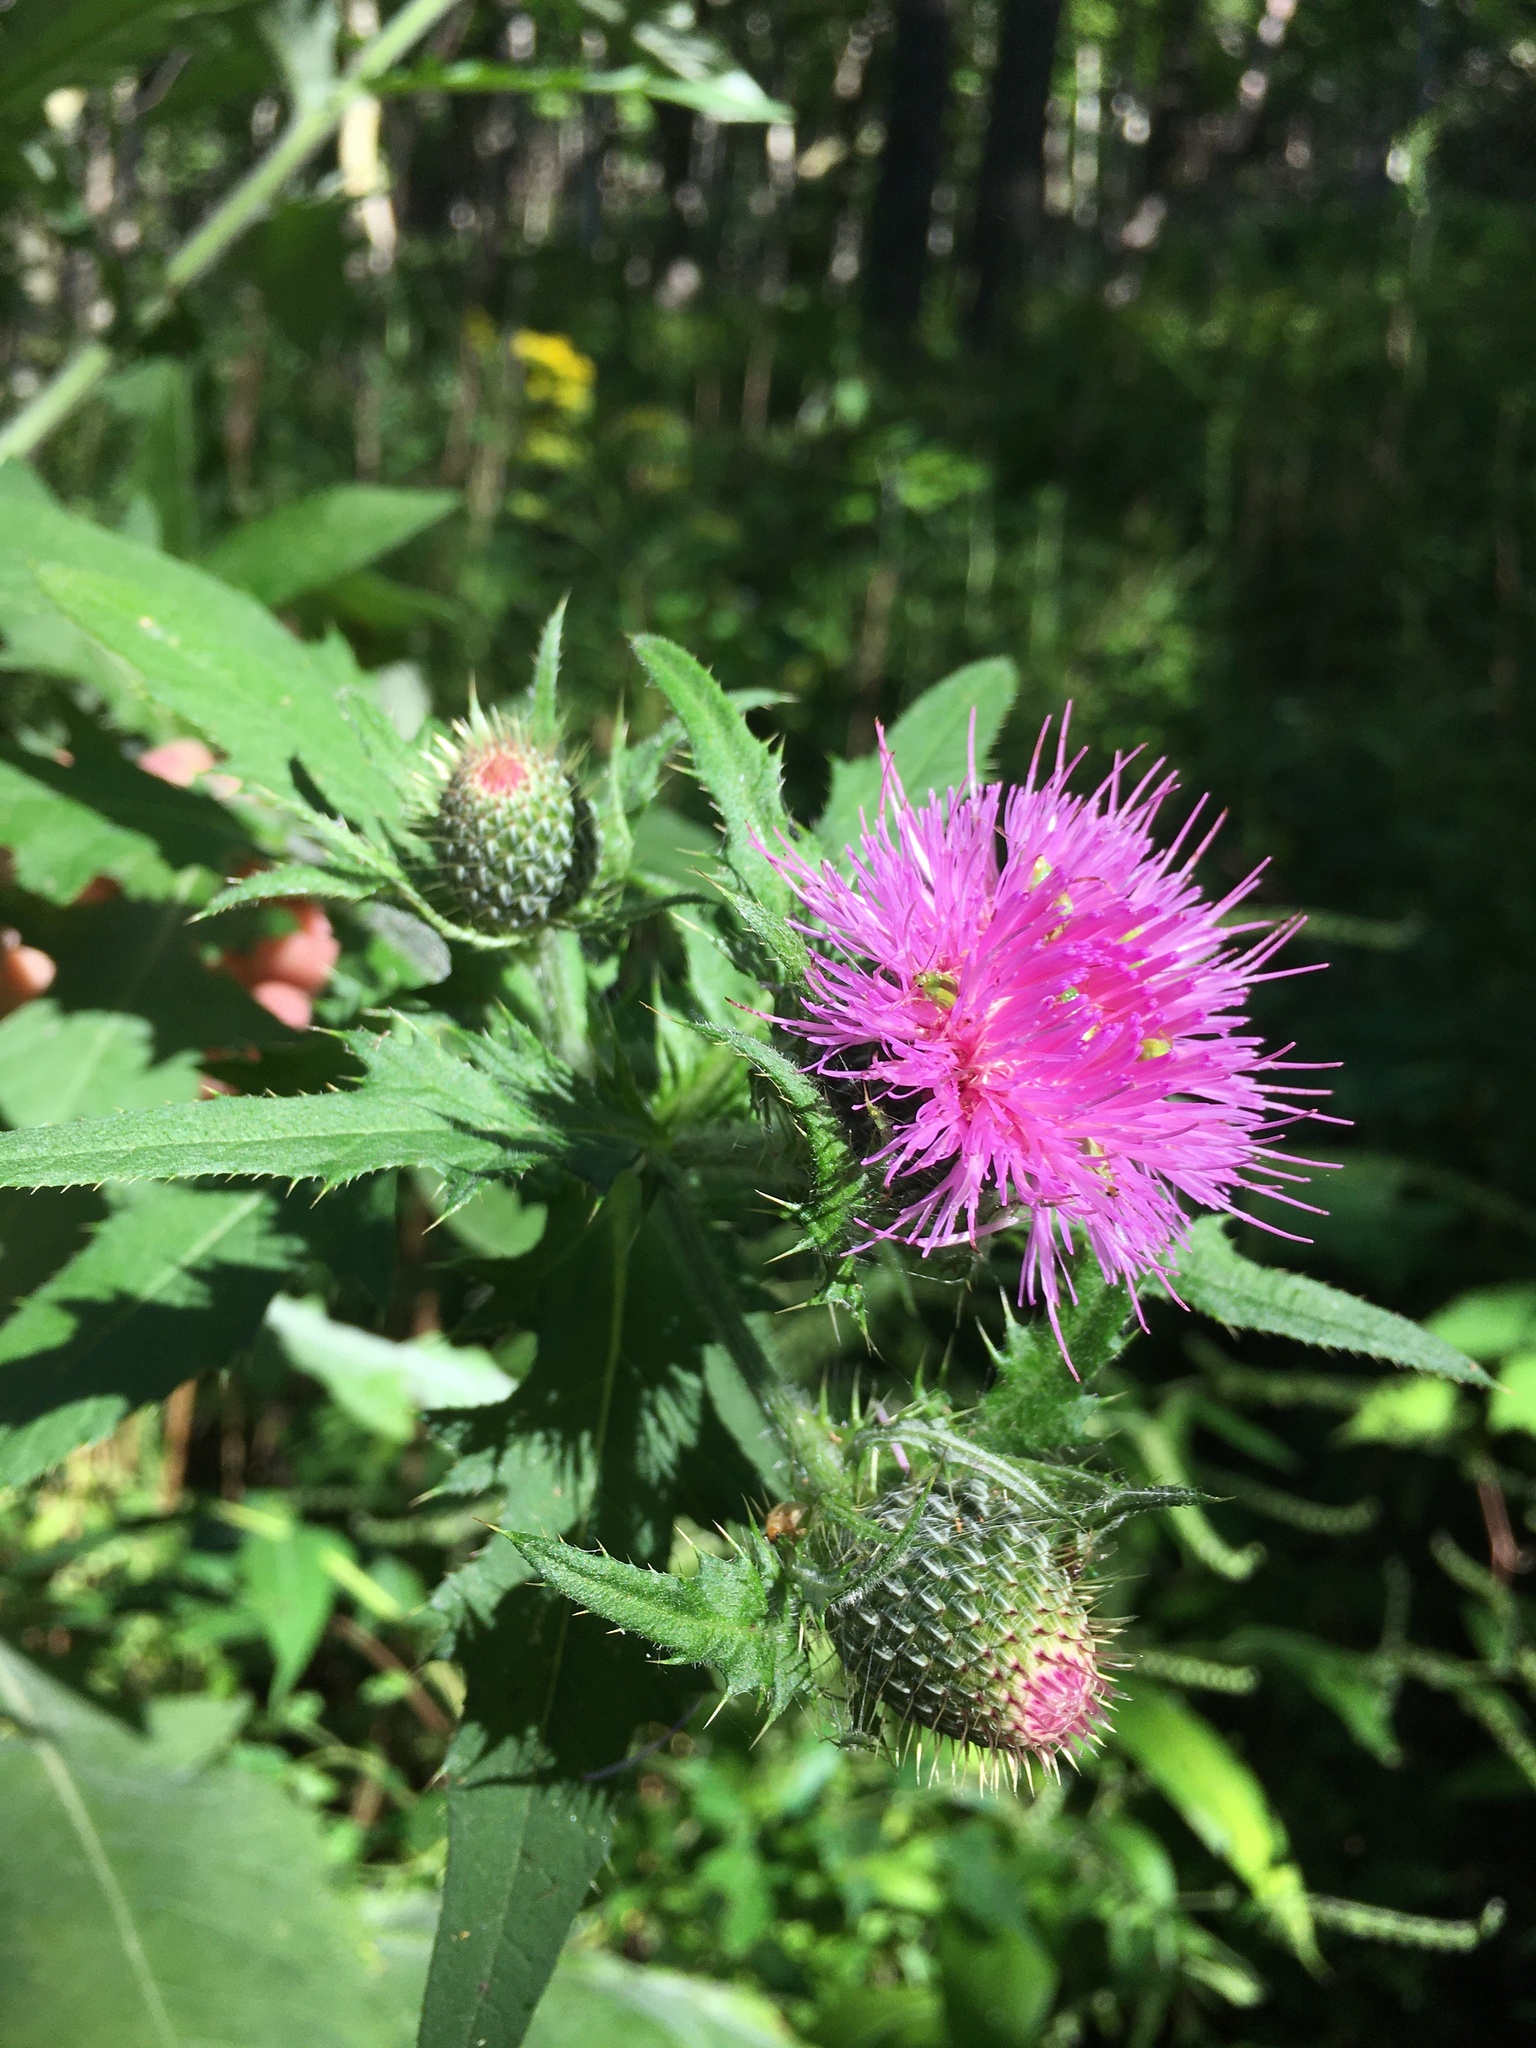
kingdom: Plantae
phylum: Tracheophyta
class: Magnoliopsida
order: Asterales
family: Asteraceae
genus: Cirsium
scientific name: Cirsium altissimum
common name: Roadside thistle
